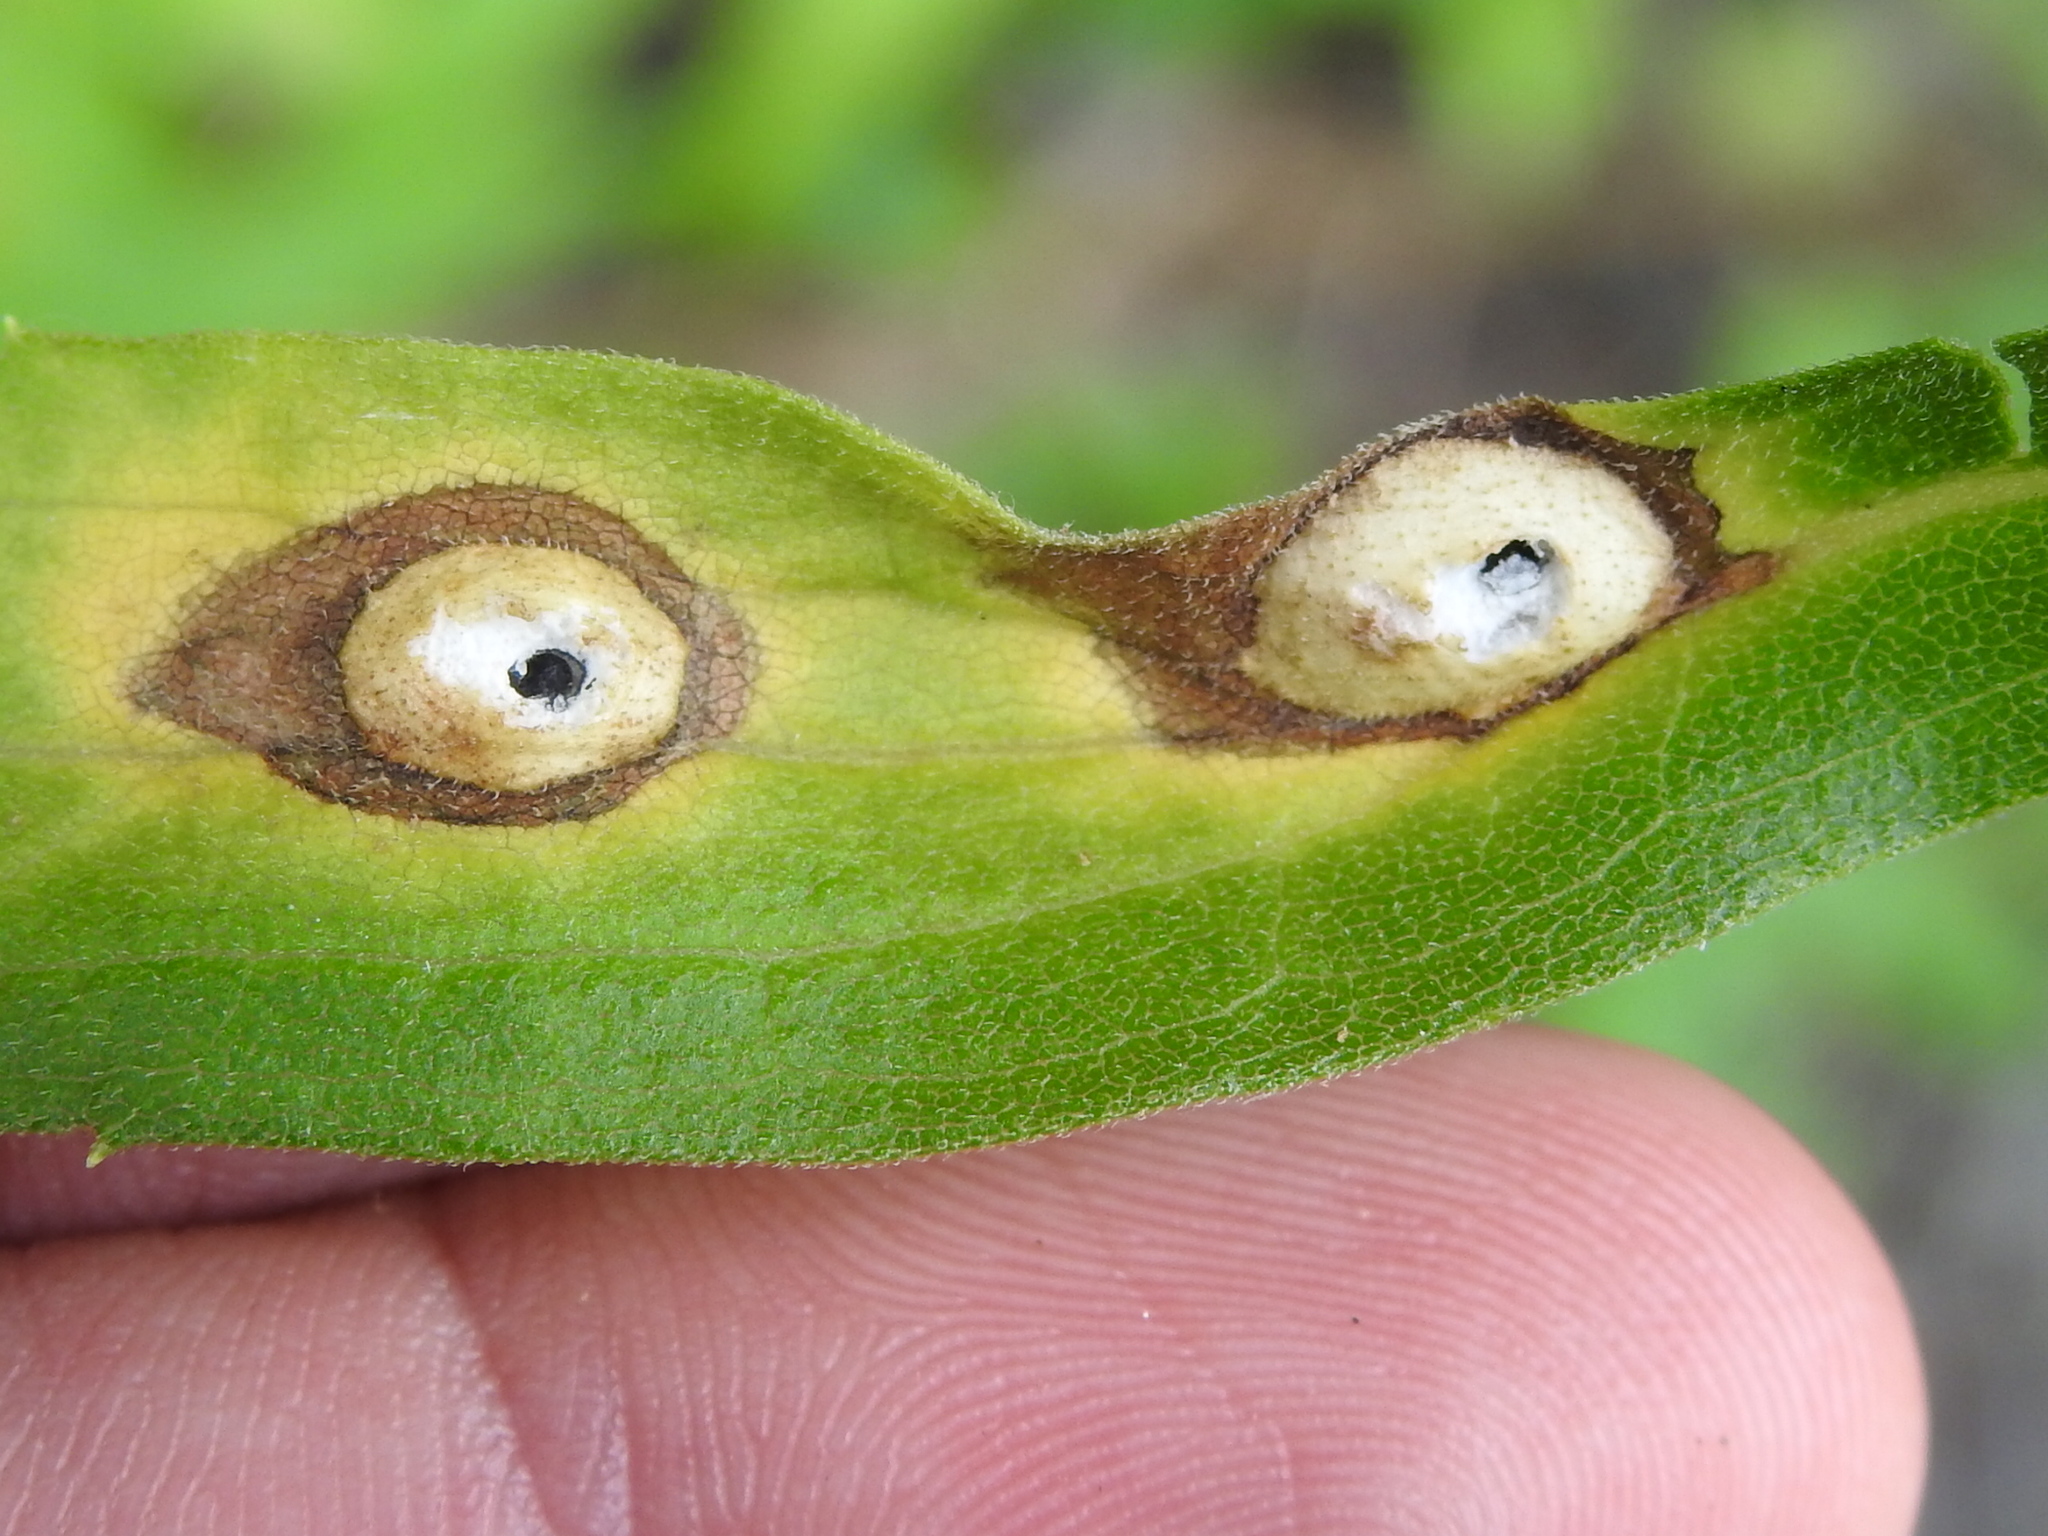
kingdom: Animalia
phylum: Arthropoda
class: Insecta
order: Diptera
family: Cecidomyiidae
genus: Asteromyia
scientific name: Asteromyia carbonifera
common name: Carbonifera goldenrod gall midge
